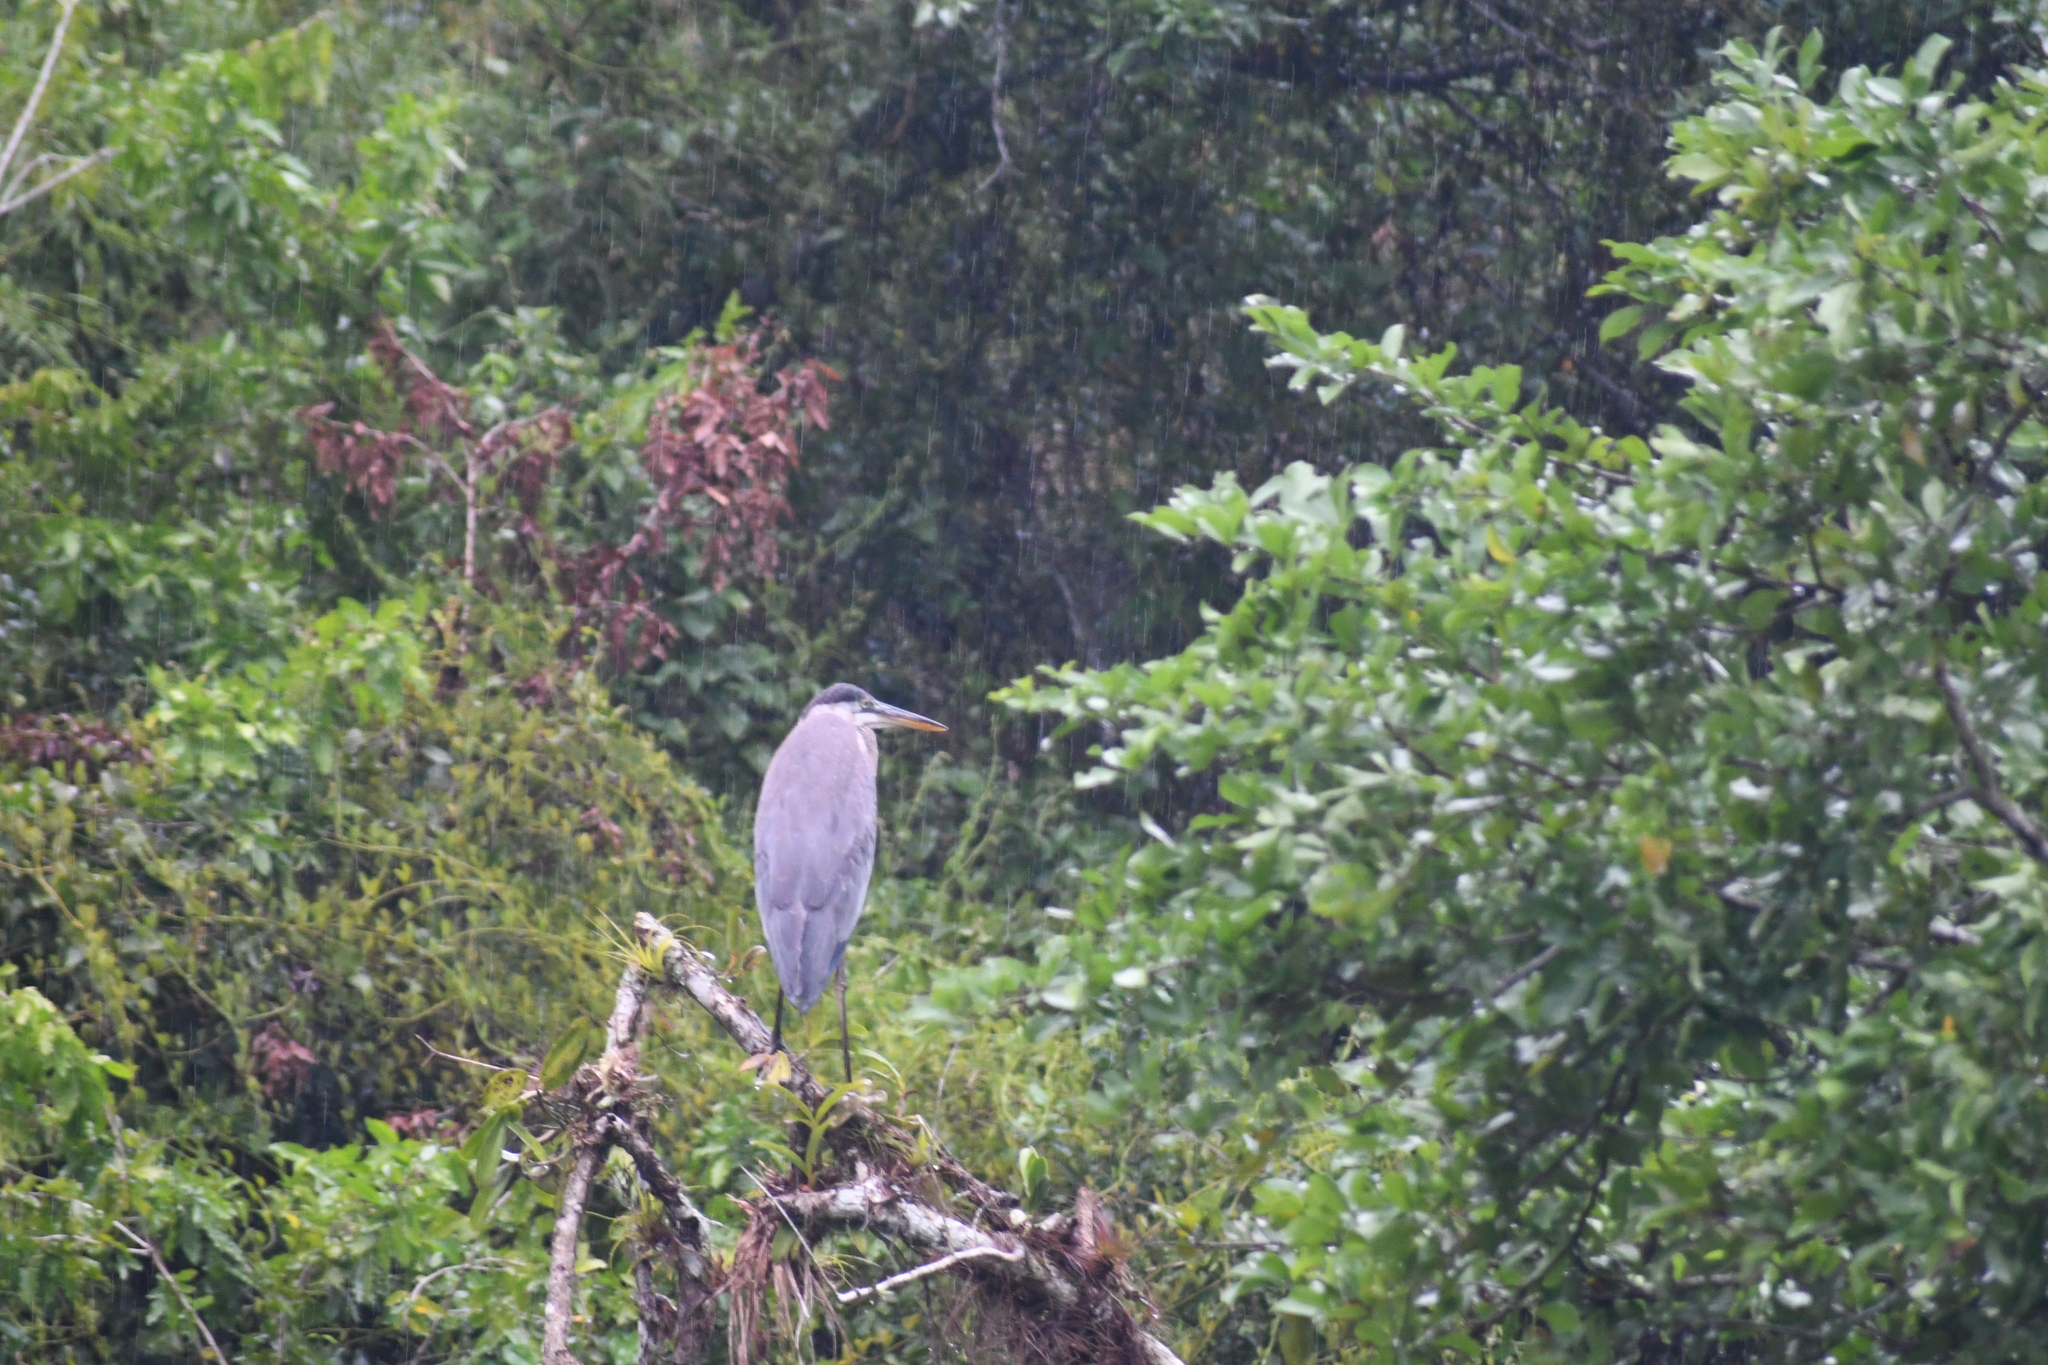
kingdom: Animalia
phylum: Chordata
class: Aves
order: Pelecaniformes
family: Ardeidae
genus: Ardea
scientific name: Ardea herodias
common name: Great blue heron
